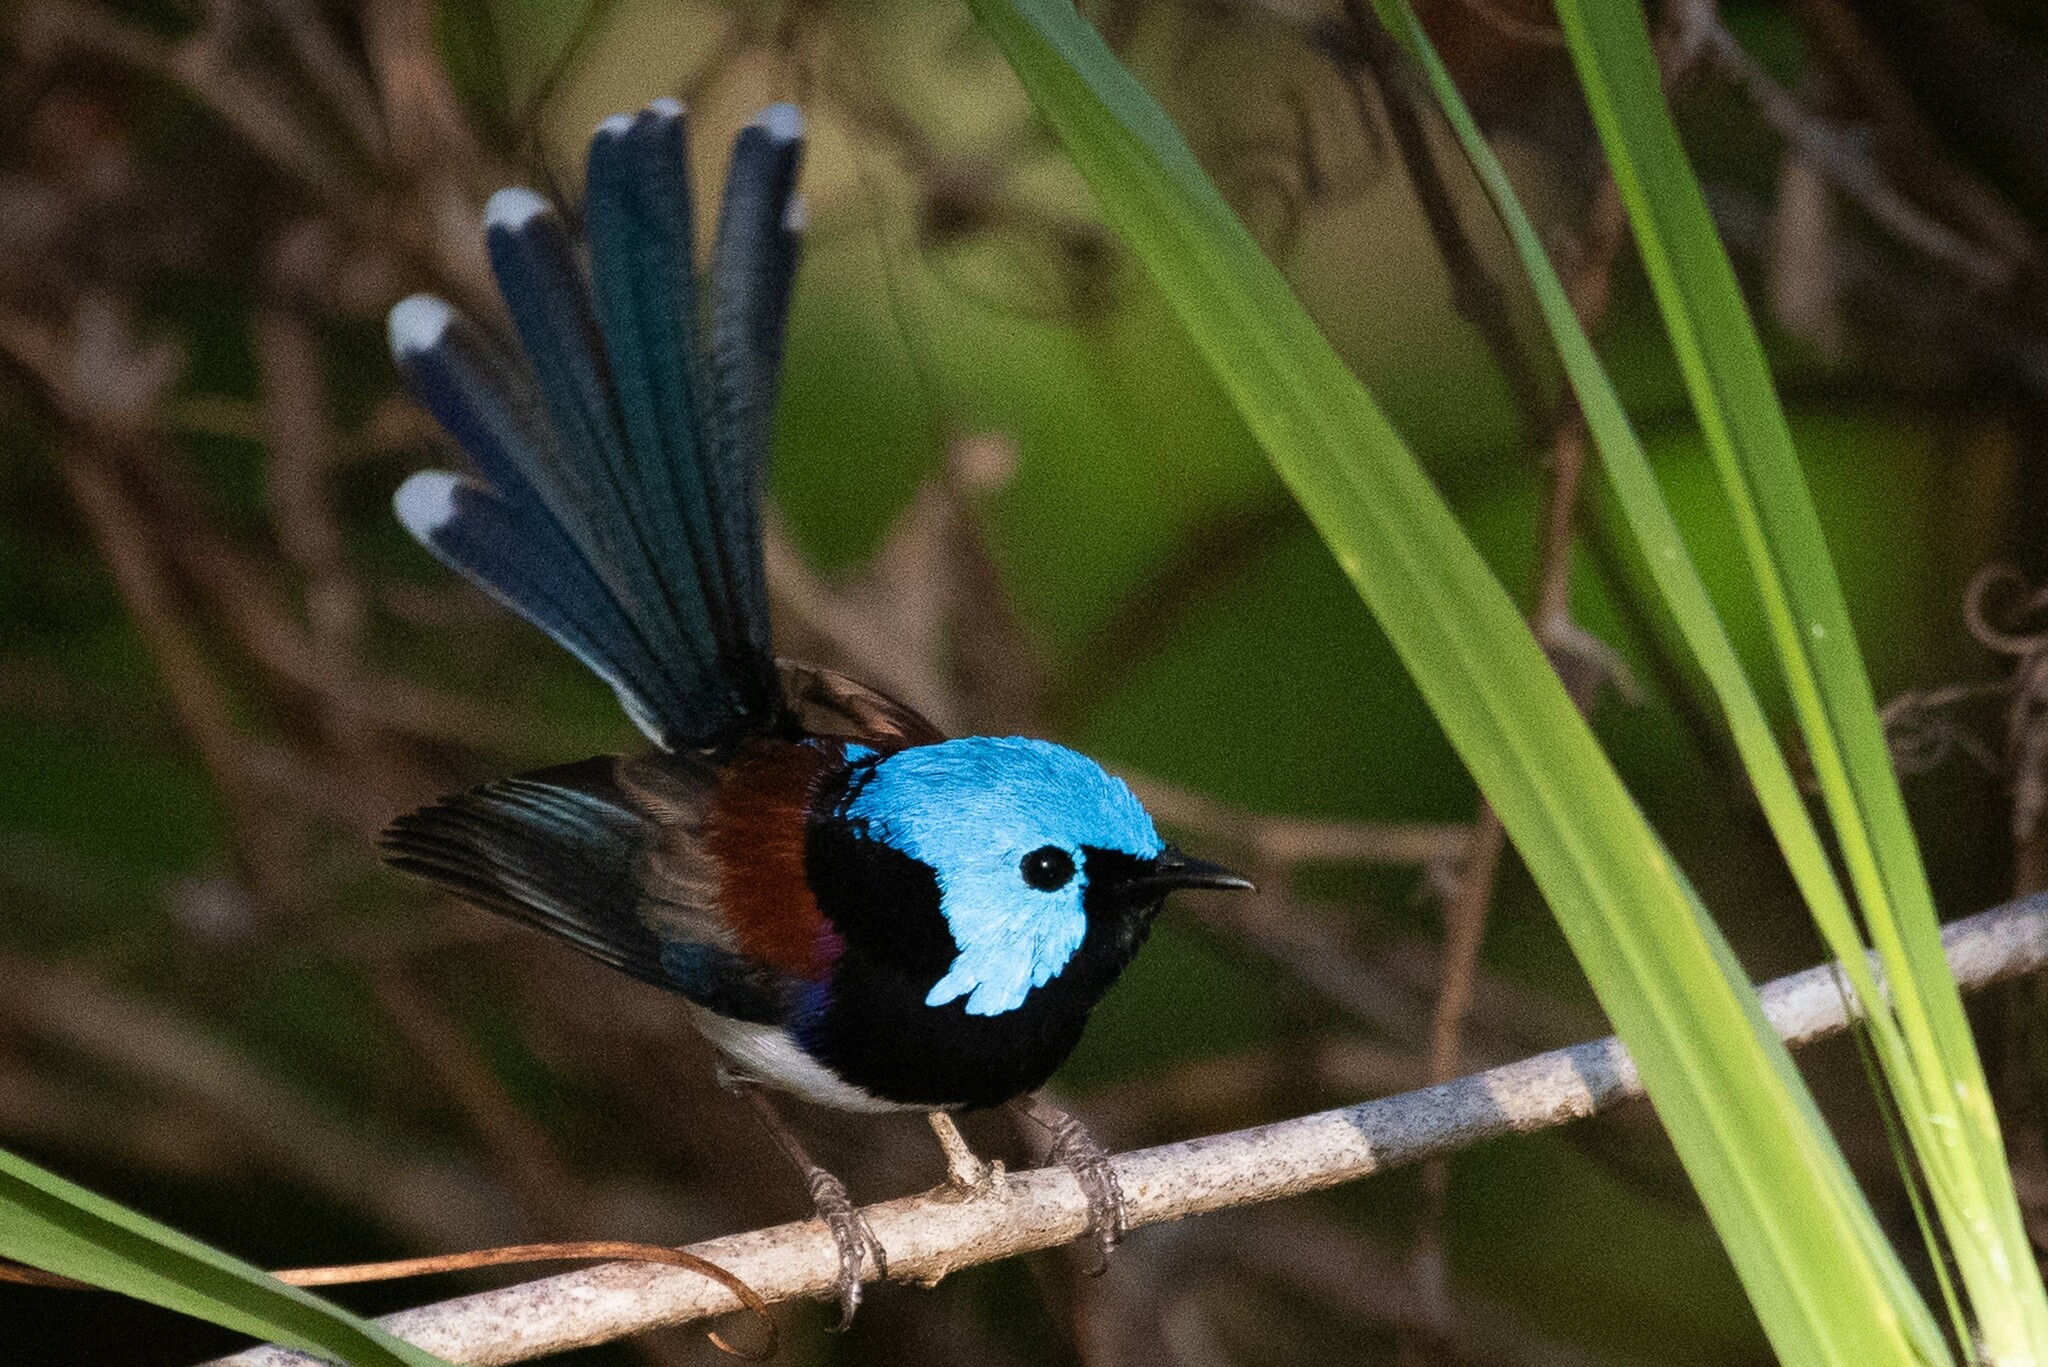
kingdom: Animalia
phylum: Chordata
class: Aves
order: Passeriformes
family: Maluridae
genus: Malurus
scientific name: Malurus amabilis
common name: Lovely fairywren
